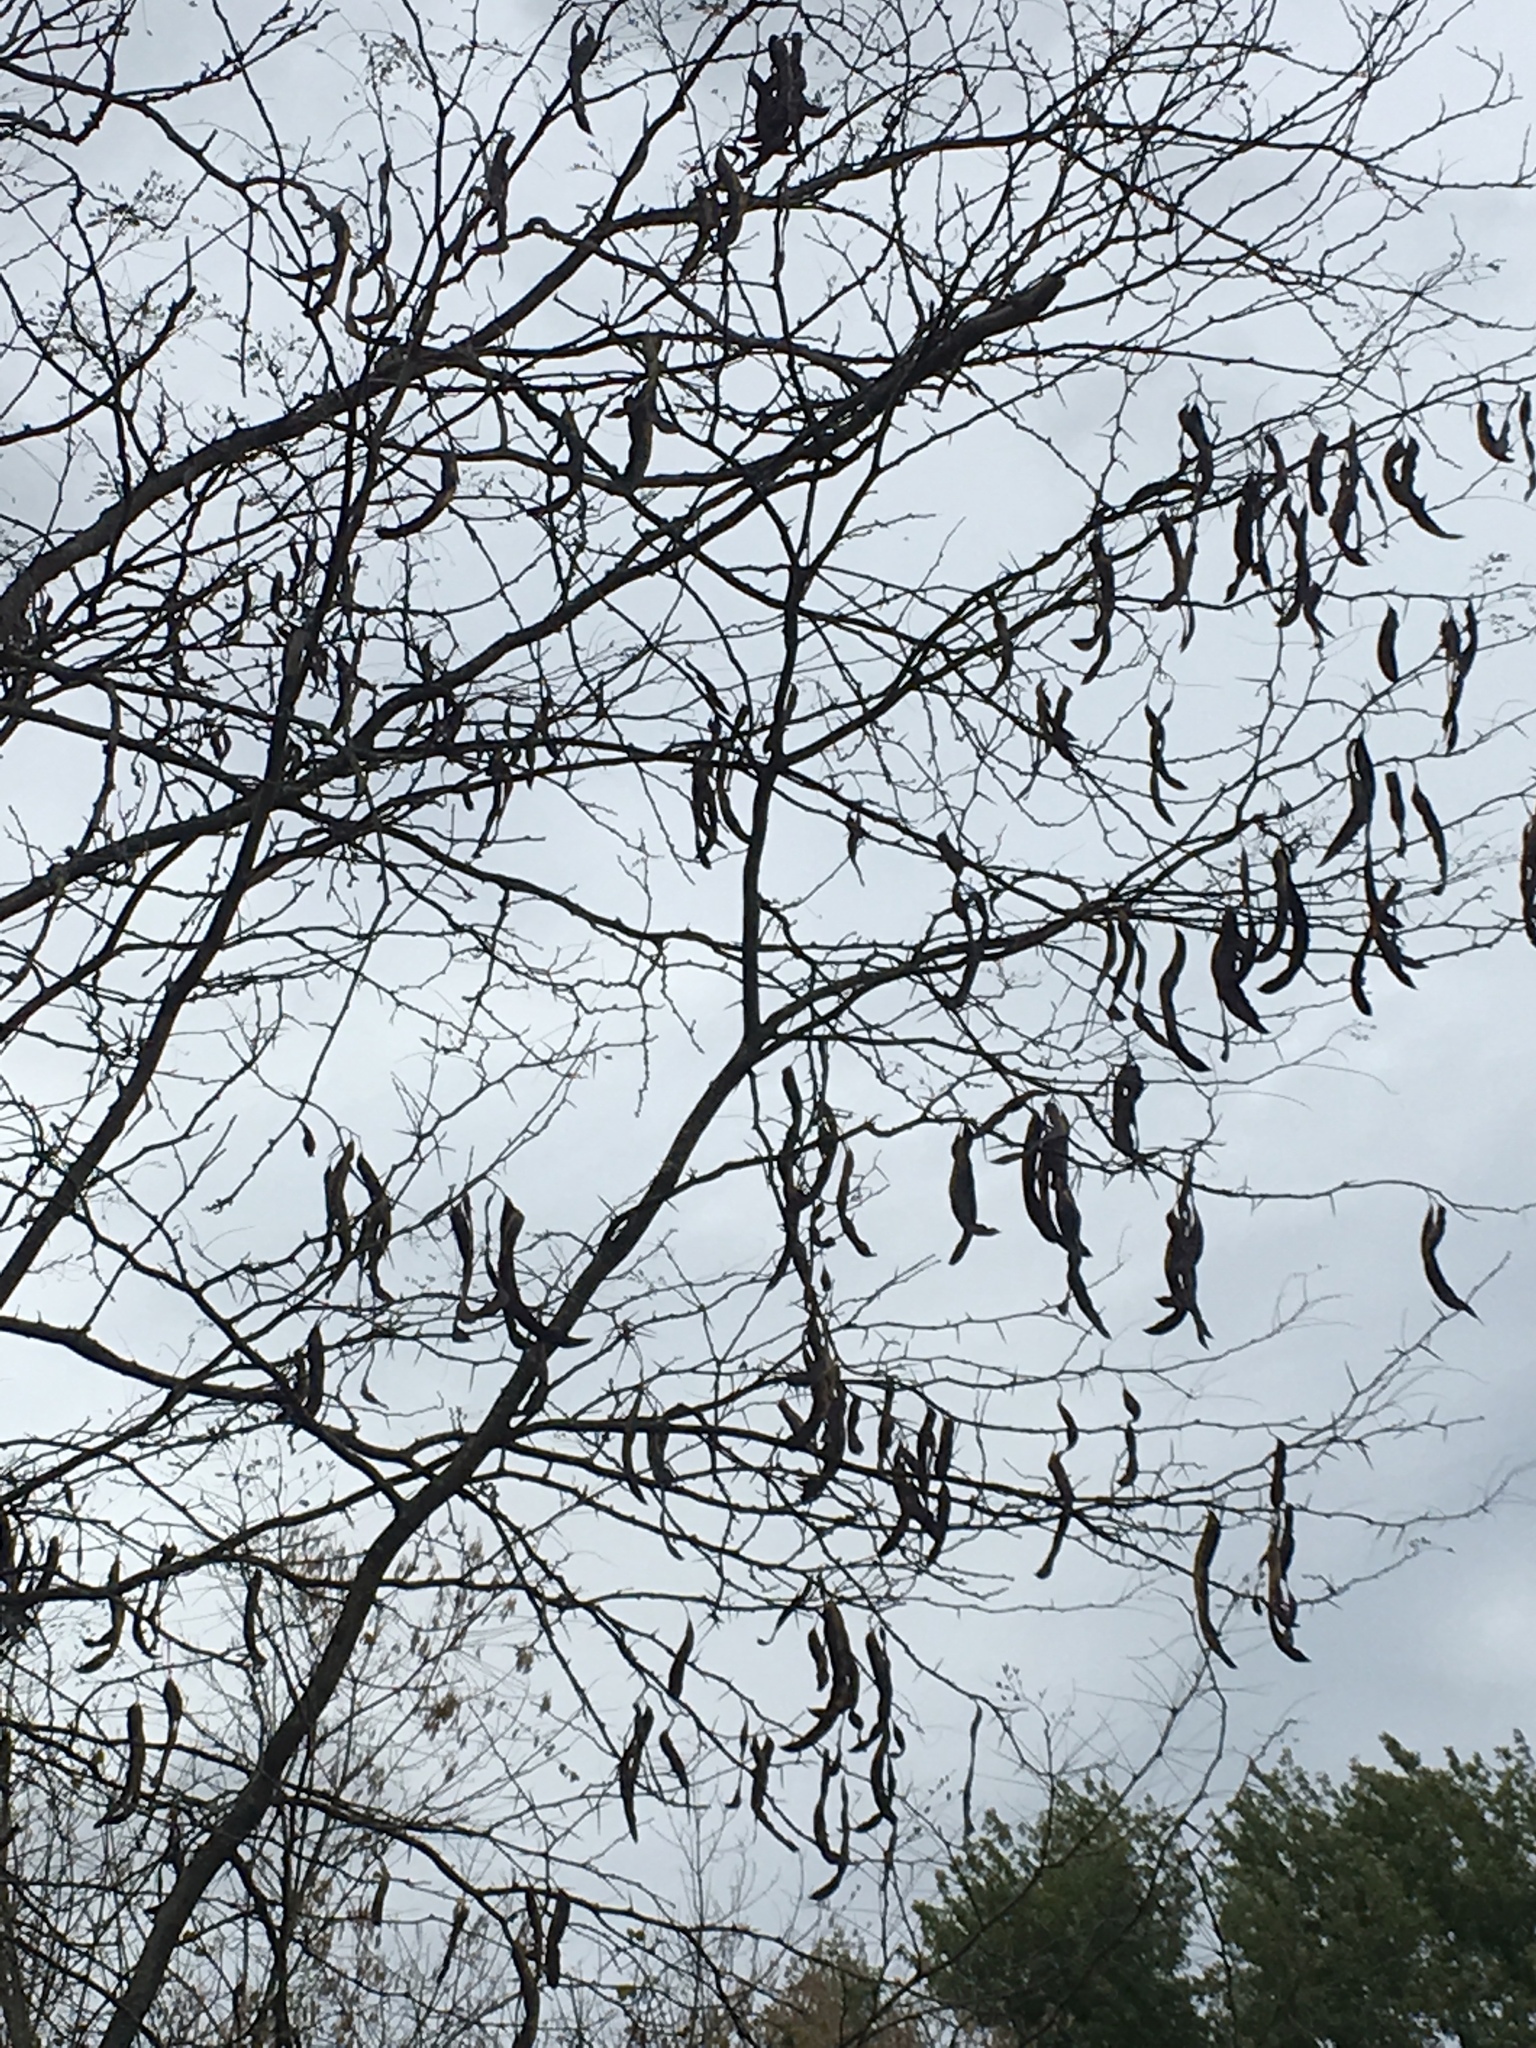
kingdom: Plantae
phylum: Tracheophyta
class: Magnoliopsida
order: Fabales
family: Fabaceae
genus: Gleditsia
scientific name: Gleditsia triacanthos
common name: Common honeylocust
